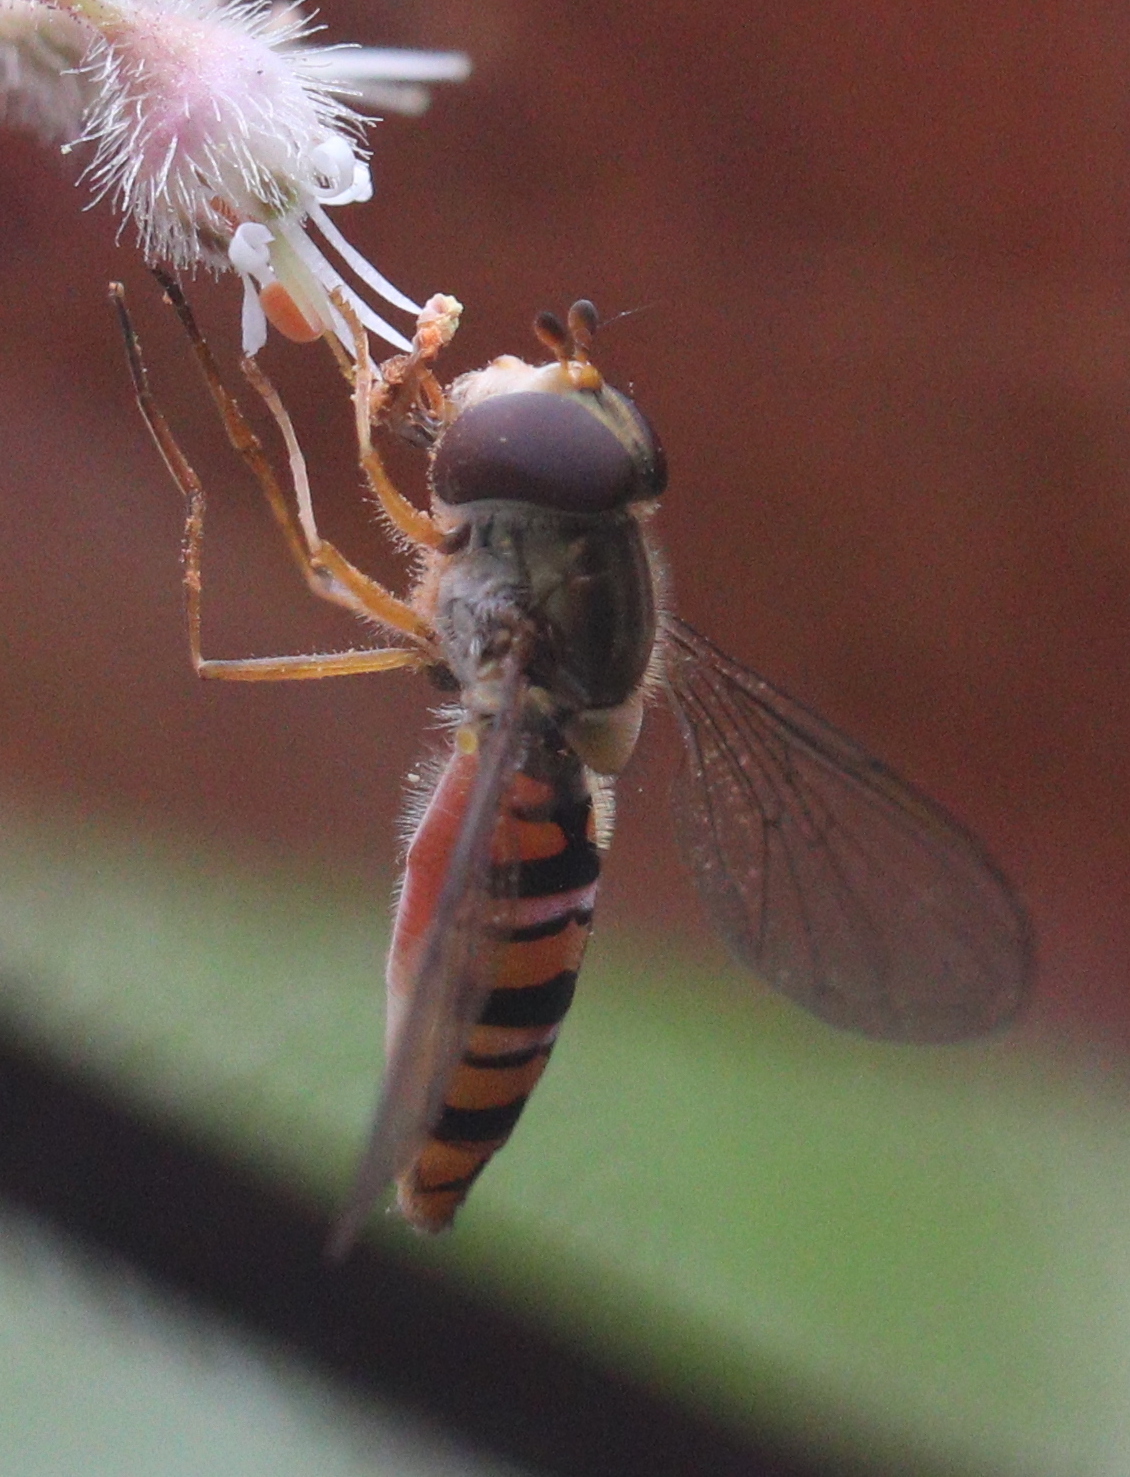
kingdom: Animalia
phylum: Arthropoda
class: Insecta
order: Diptera
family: Syrphidae
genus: Episyrphus
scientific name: Episyrphus balteatus
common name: Marmalade hoverfly
